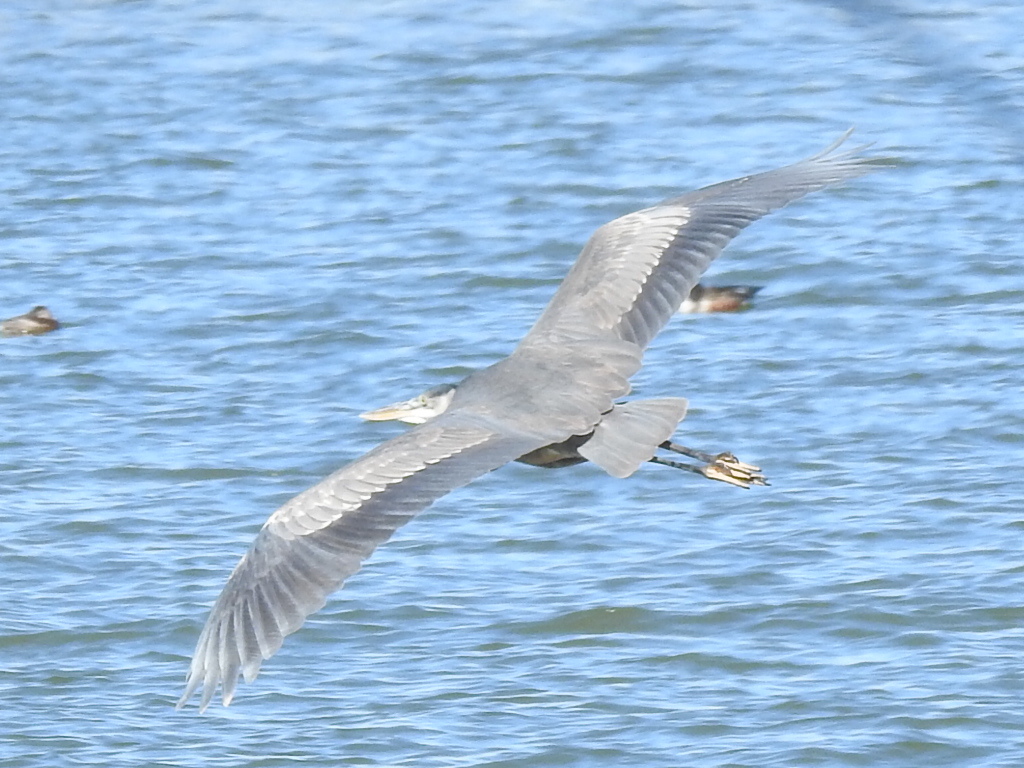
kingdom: Animalia
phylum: Chordata
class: Aves
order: Pelecaniformes
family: Ardeidae
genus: Ardea
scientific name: Ardea herodias
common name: Great blue heron
